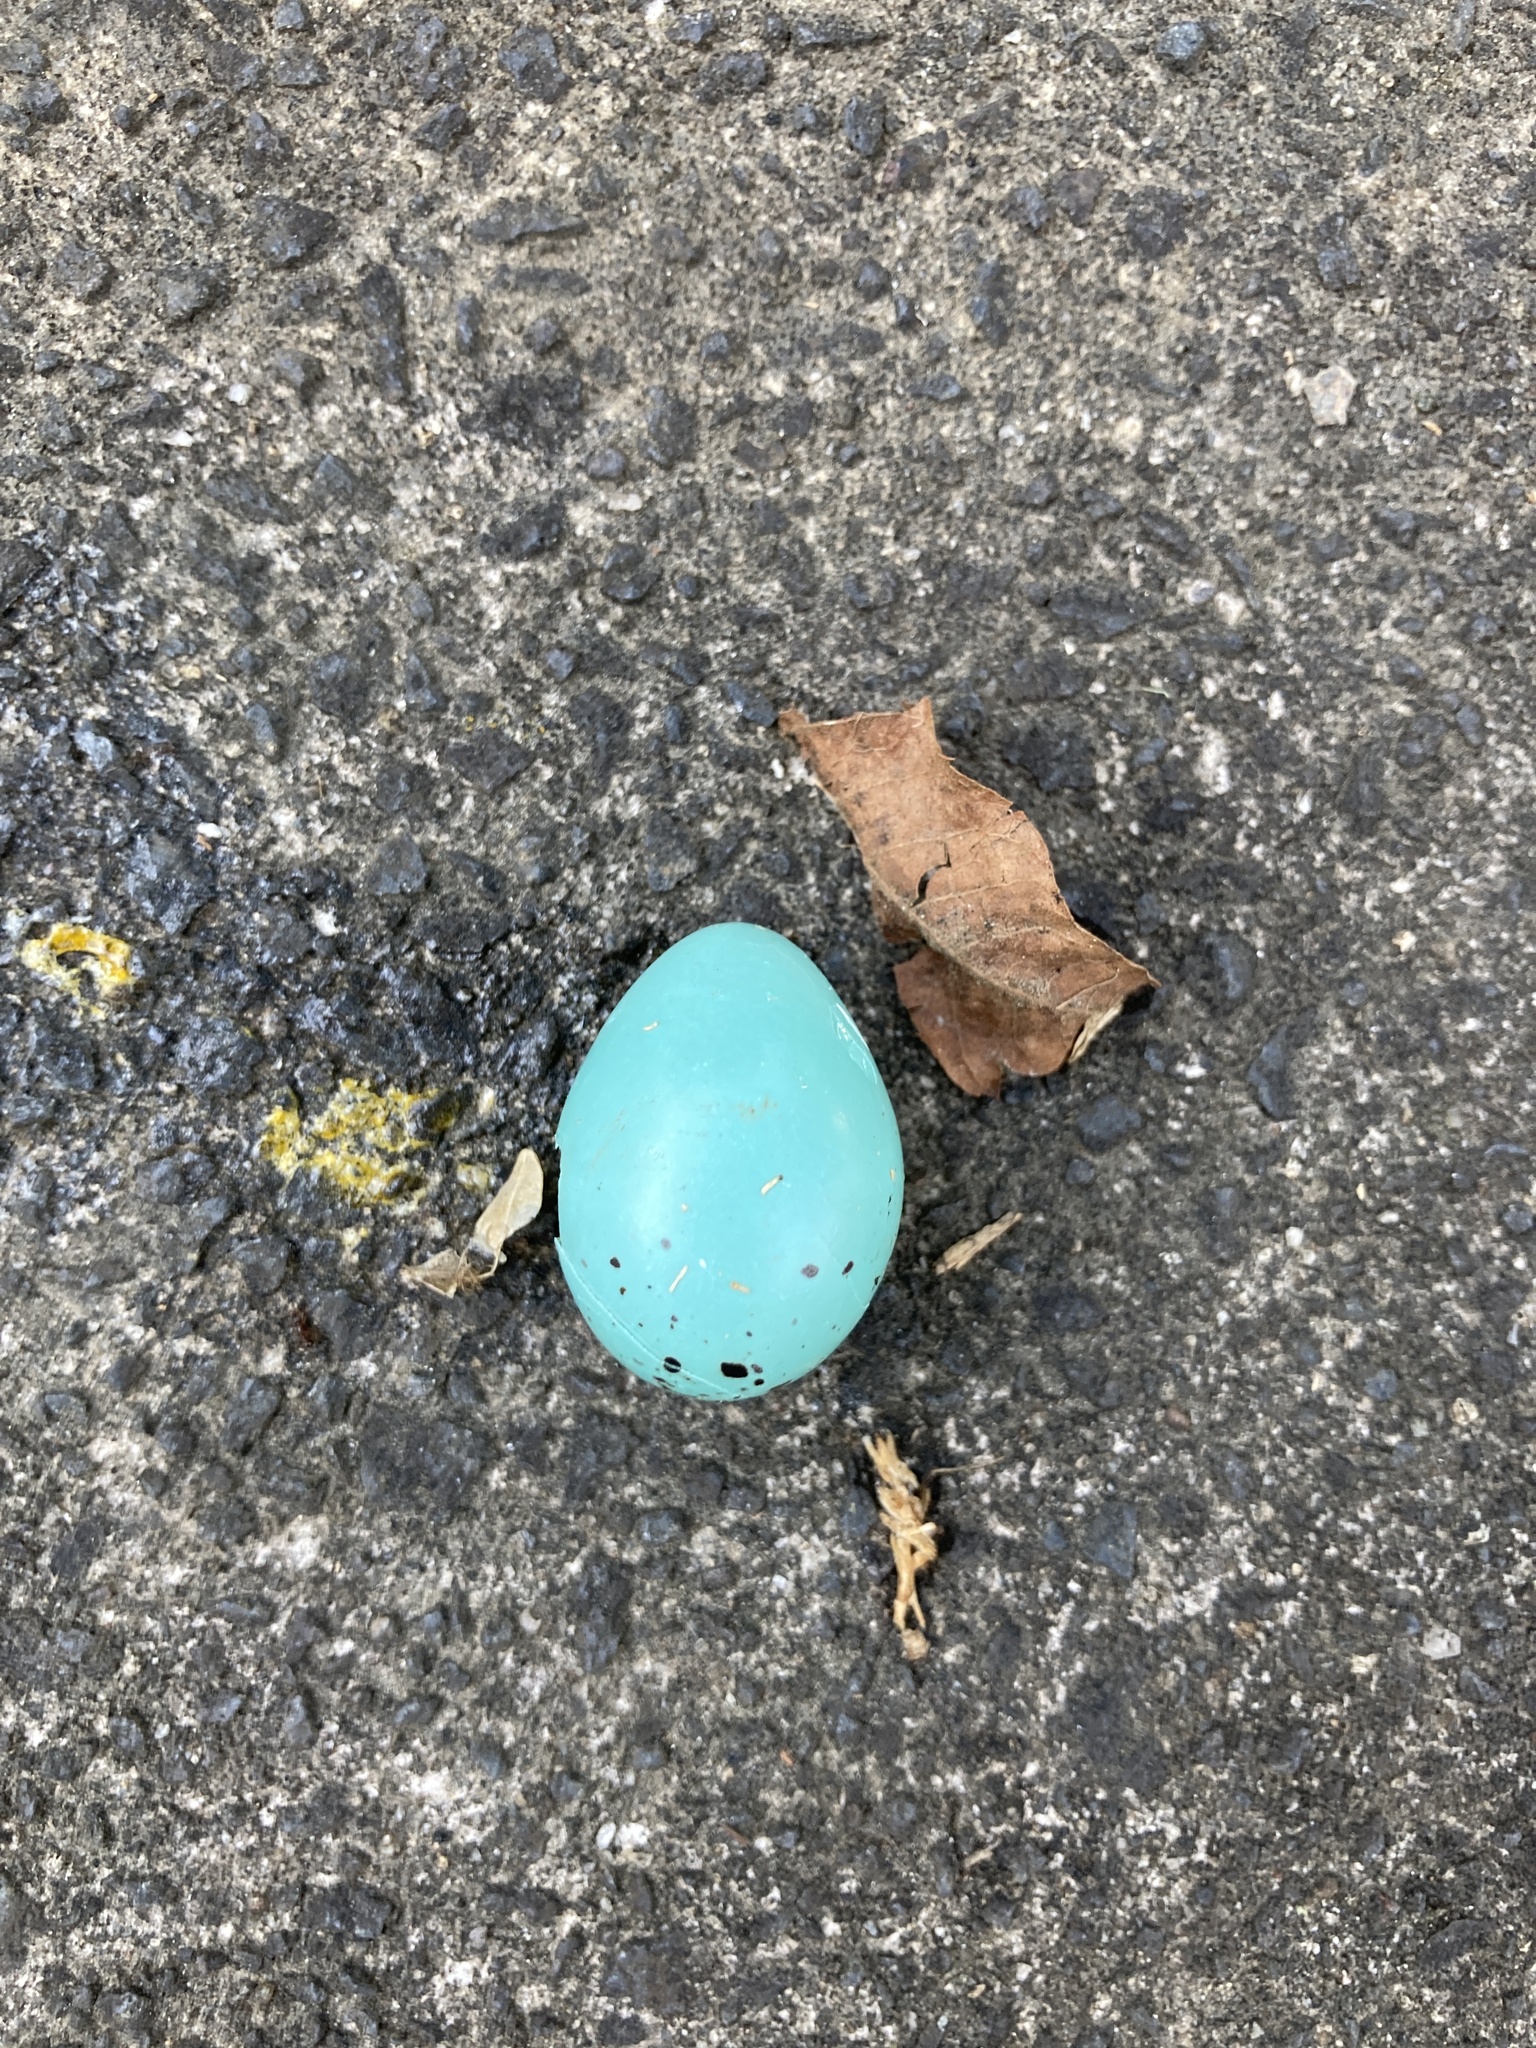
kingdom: Animalia
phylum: Chordata
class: Aves
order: Passeriformes
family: Turdidae
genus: Turdus
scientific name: Turdus philomelos
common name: Song thrush
